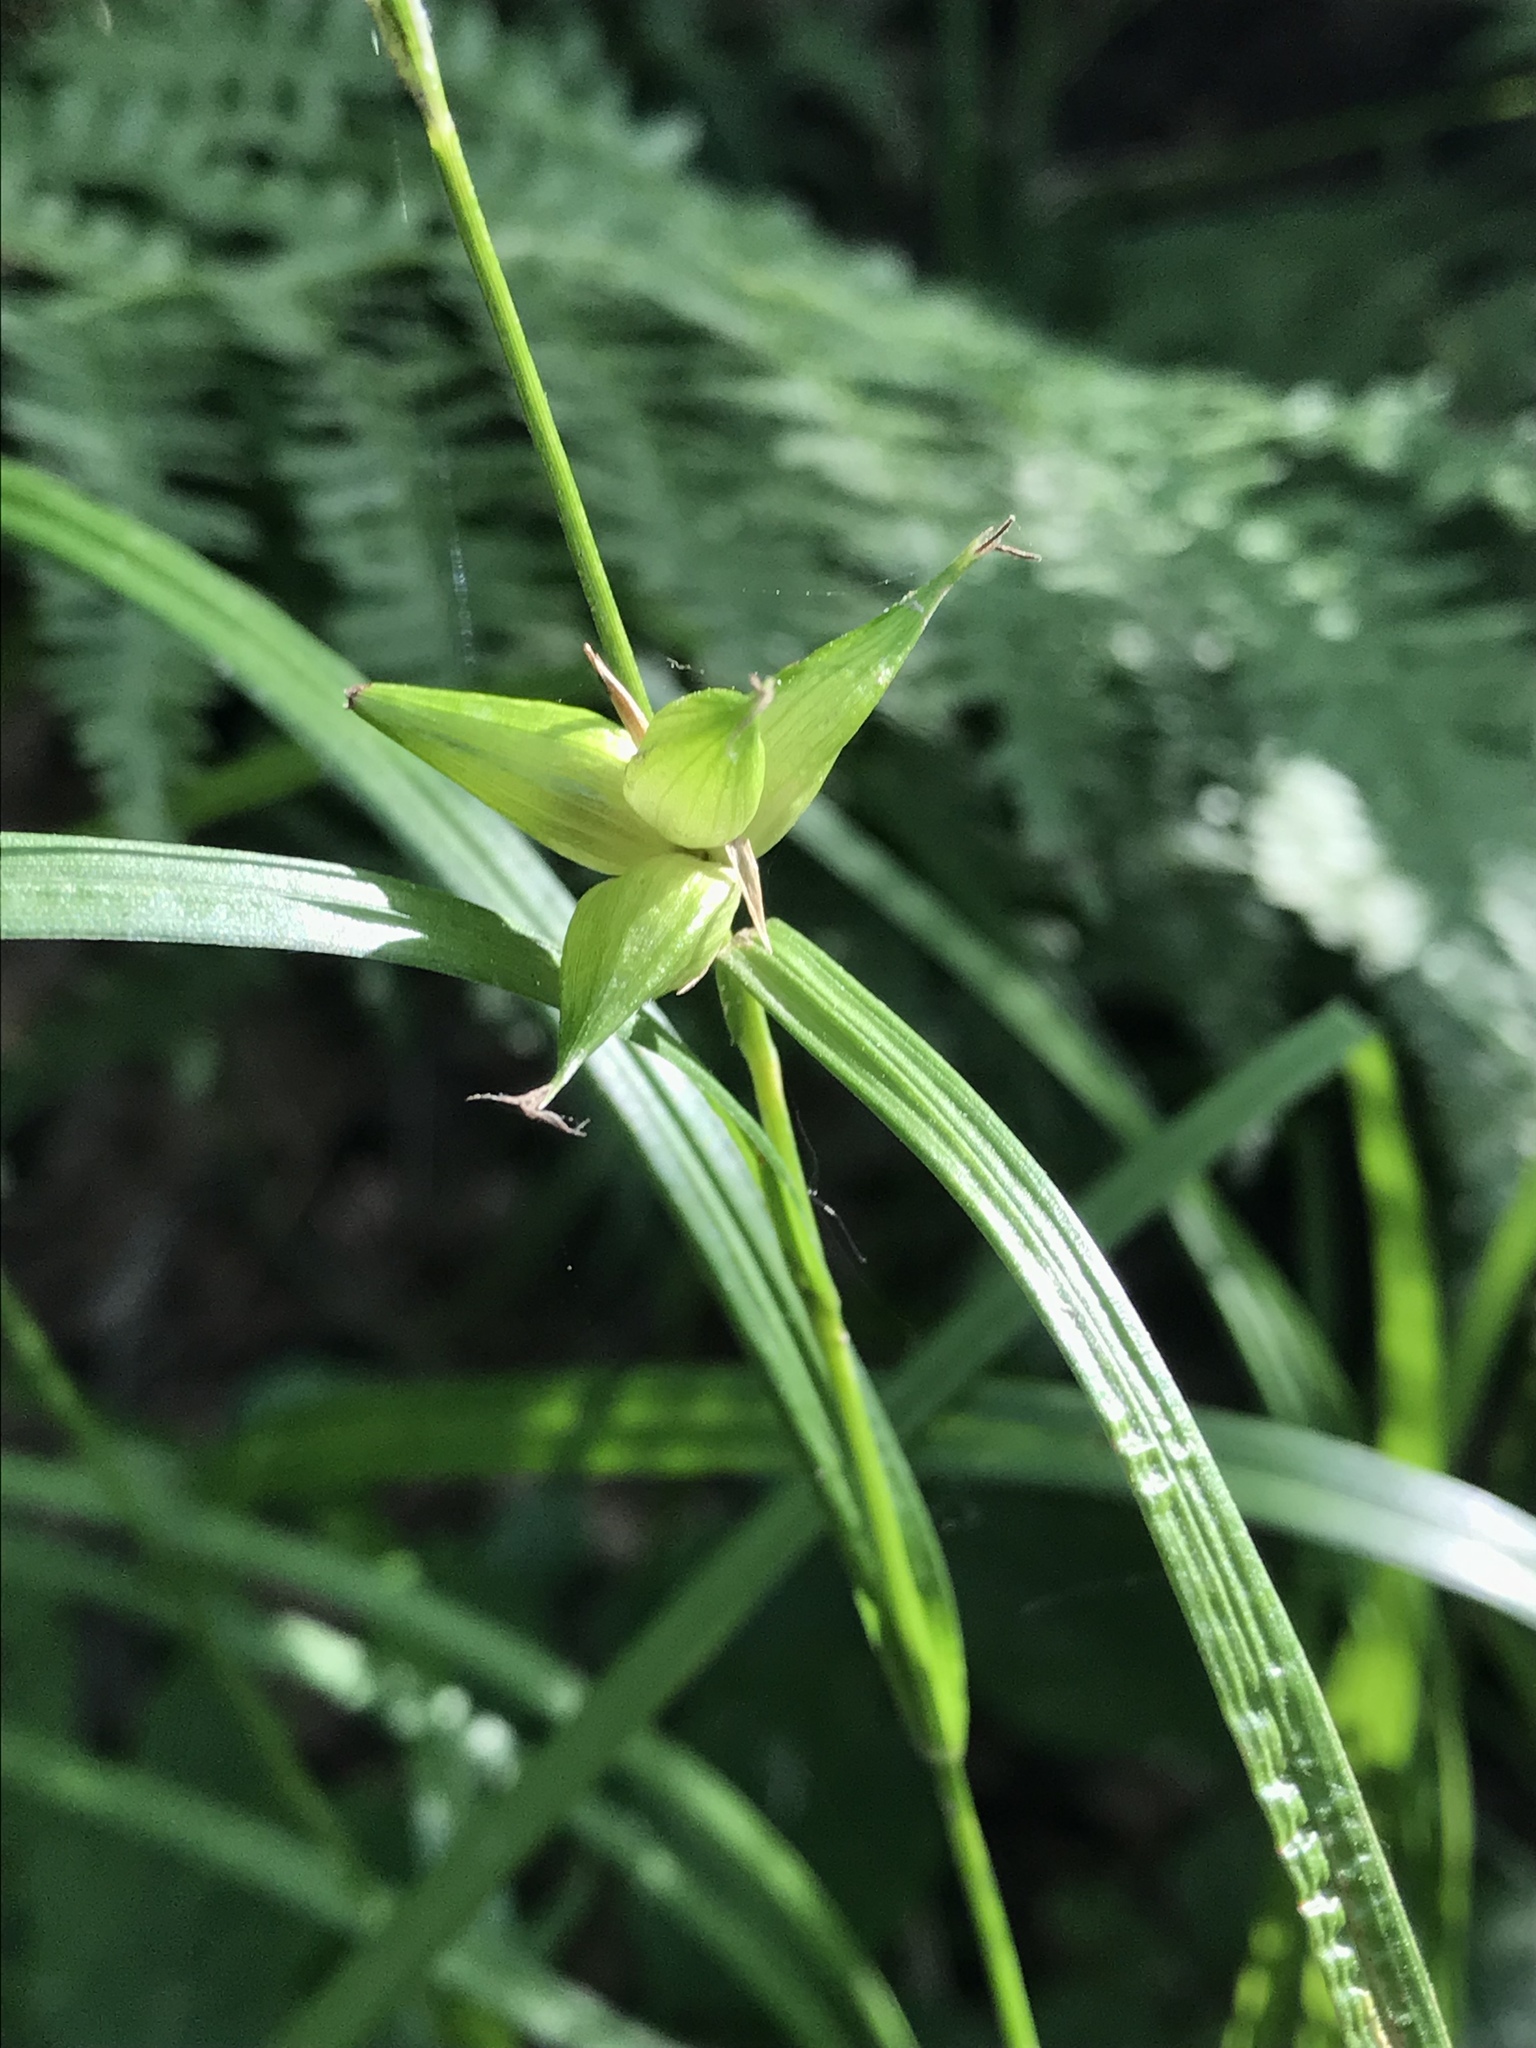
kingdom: Plantae
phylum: Tracheophyta
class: Liliopsida
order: Poales
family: Cyperaceae
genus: Carex
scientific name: Carex intumescens
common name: Greater bladder sedge
